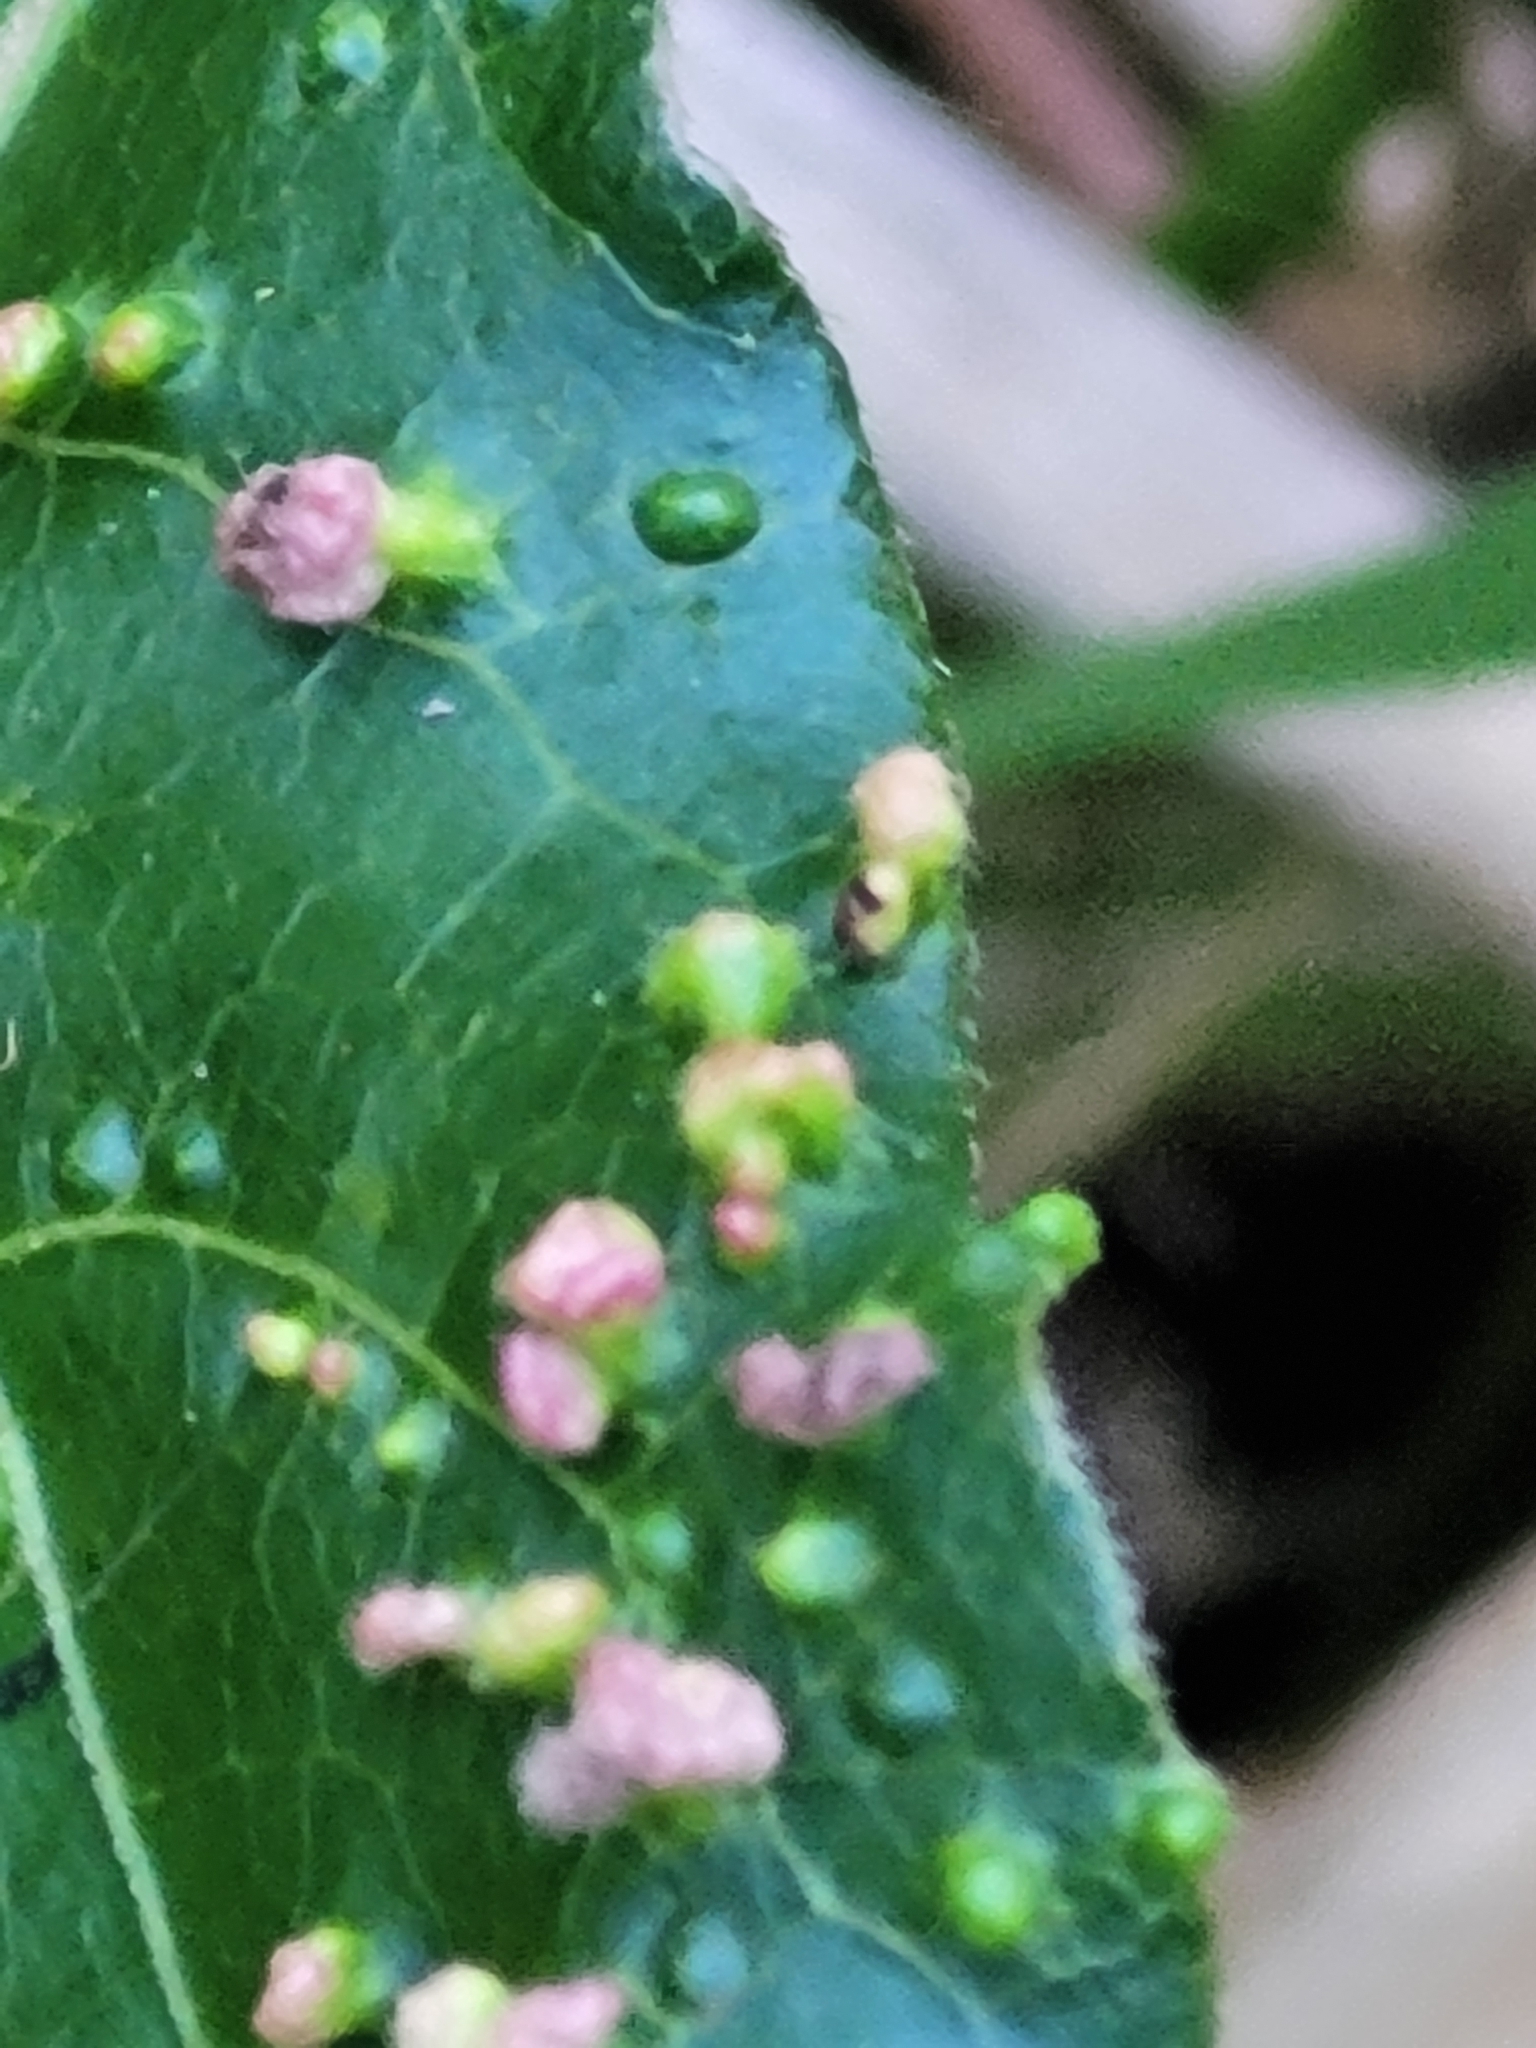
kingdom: Animalia
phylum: Arthropoda
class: Arachnida
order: Trombidiformes
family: Eriophyidae
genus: Aculops
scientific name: Aculops
